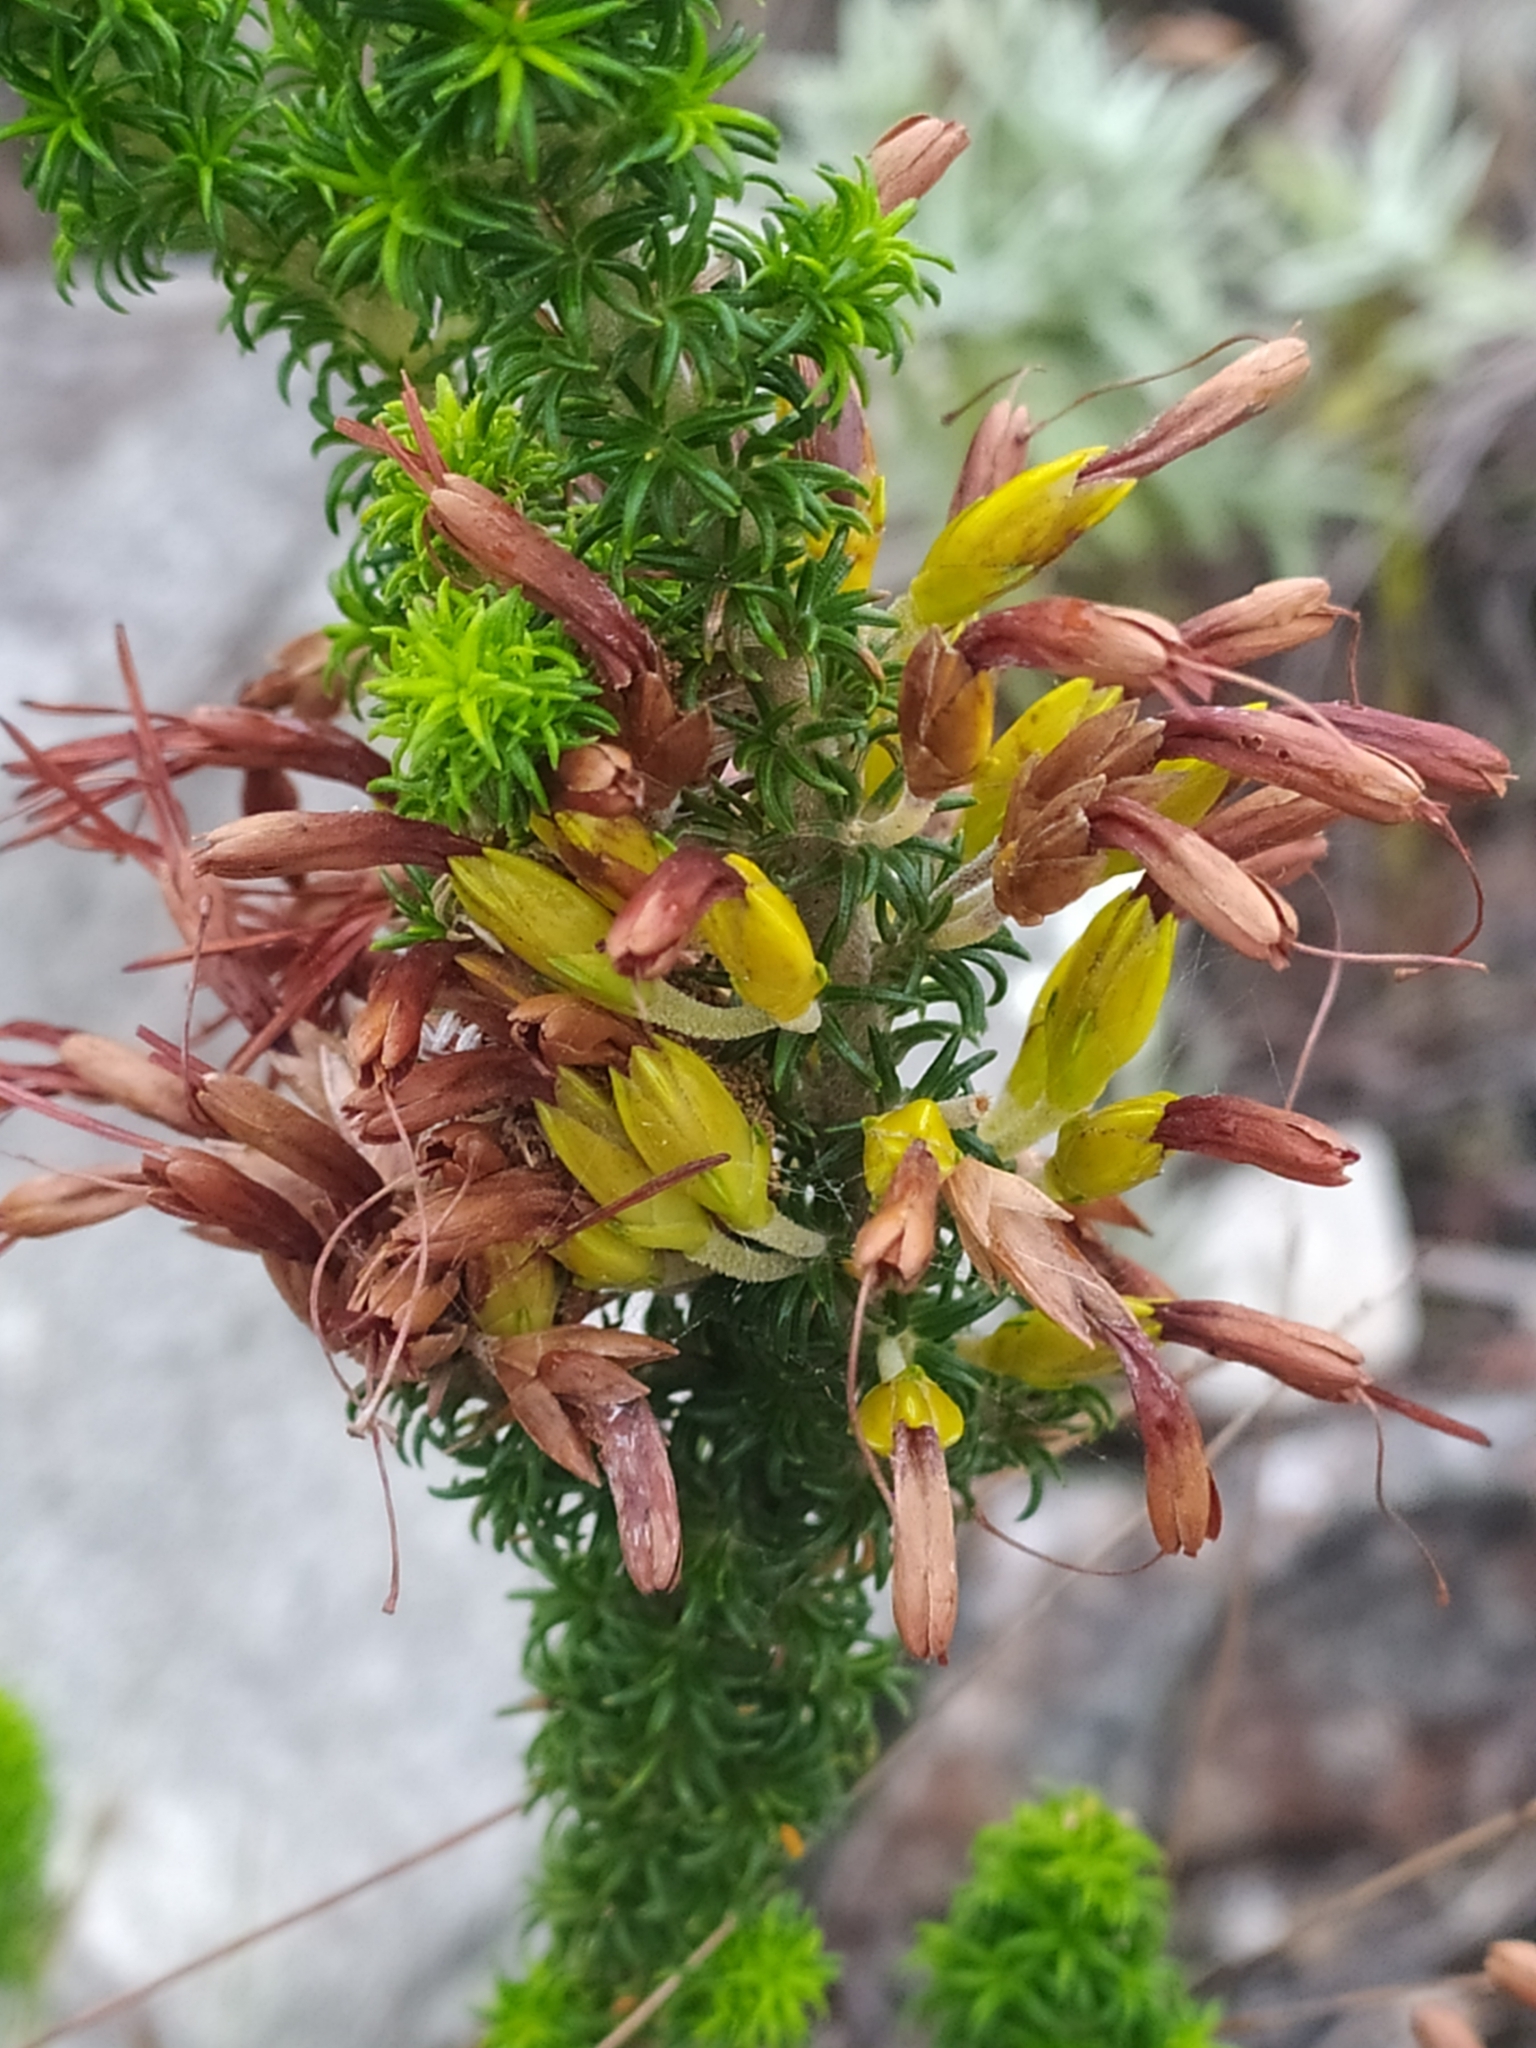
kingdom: Plantae
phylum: Tracheophyta
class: Magnoliopsida
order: Ericales
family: Ericaceae
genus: Erica
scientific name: Erica coccinea
